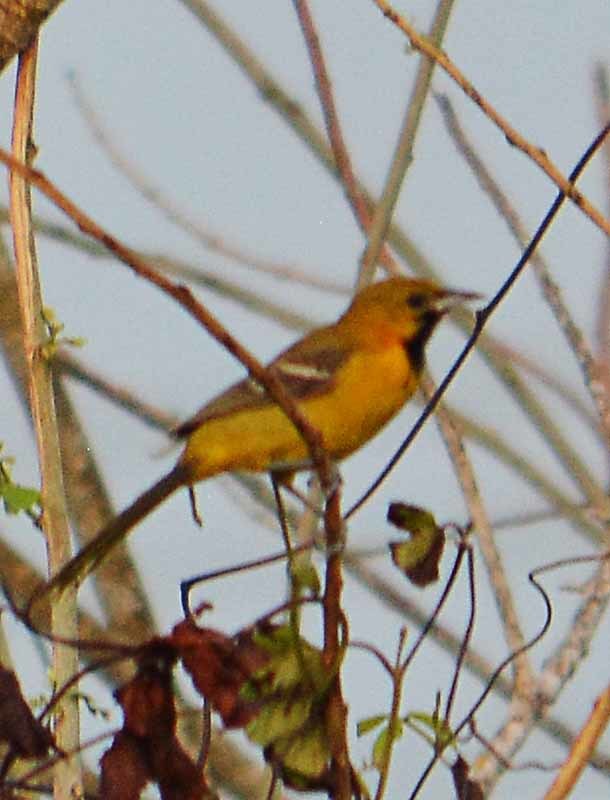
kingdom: Animalia
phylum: Chordata
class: Aves
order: Passeriformes
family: Icteridae
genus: Icterus
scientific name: Icterus spurius
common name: Orchard oriole
